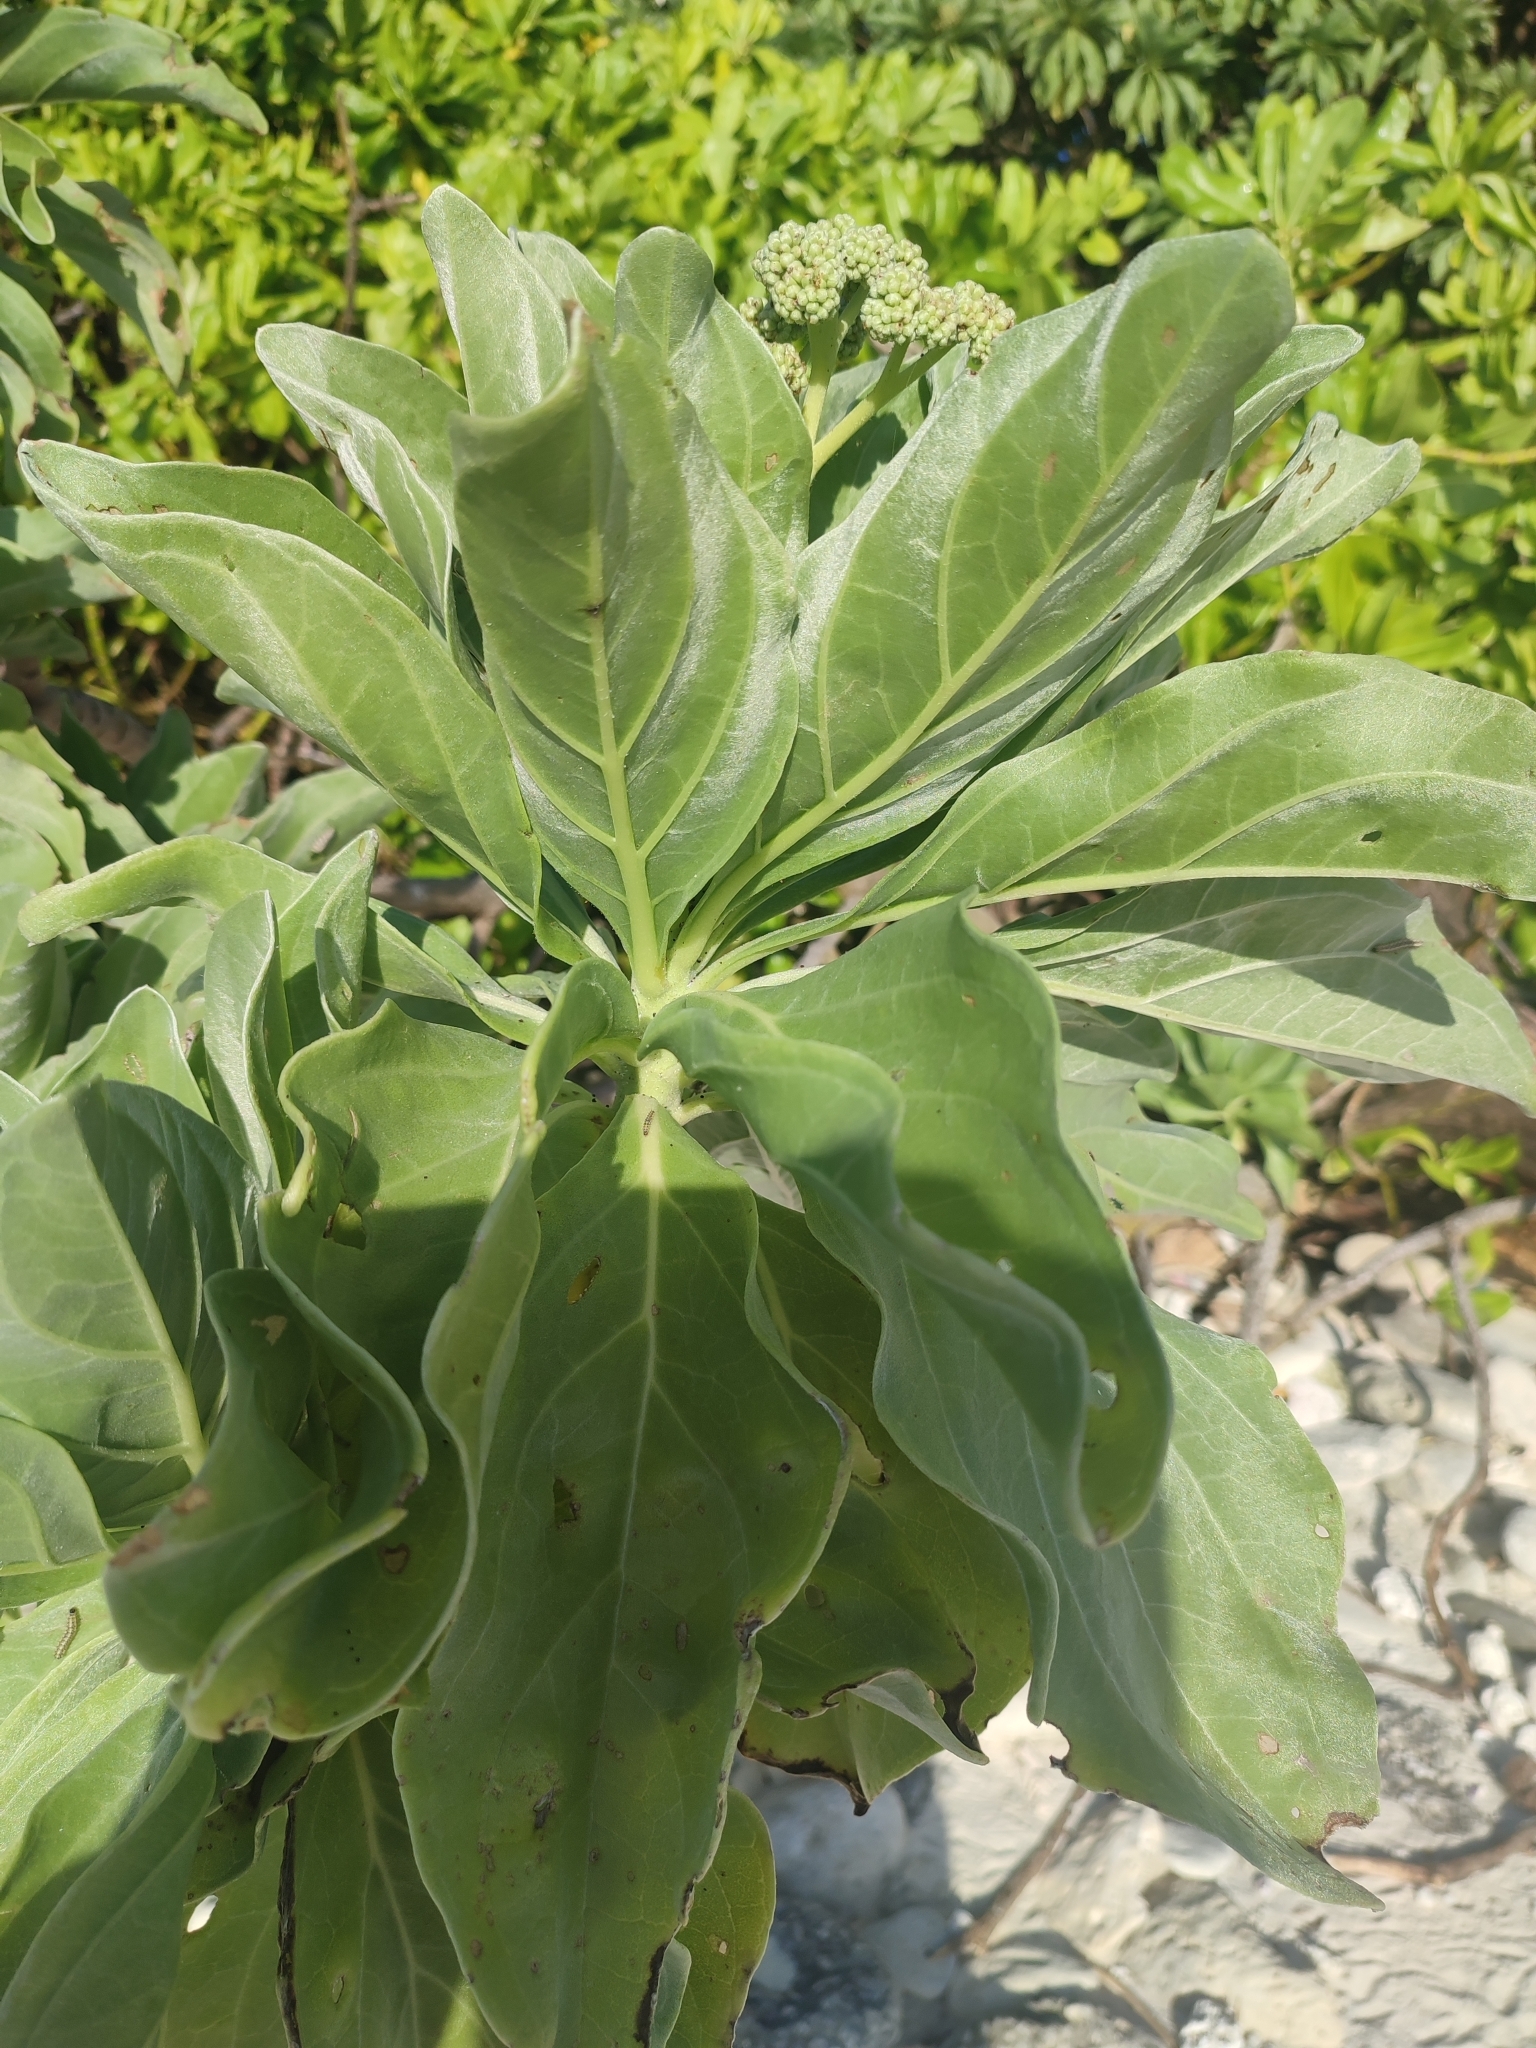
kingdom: Plantae
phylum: Tracheophyta
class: Magnoliopsida
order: Boraginales
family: Heliotropiaceae
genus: Heliotropium
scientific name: Heliotropium velutinum
